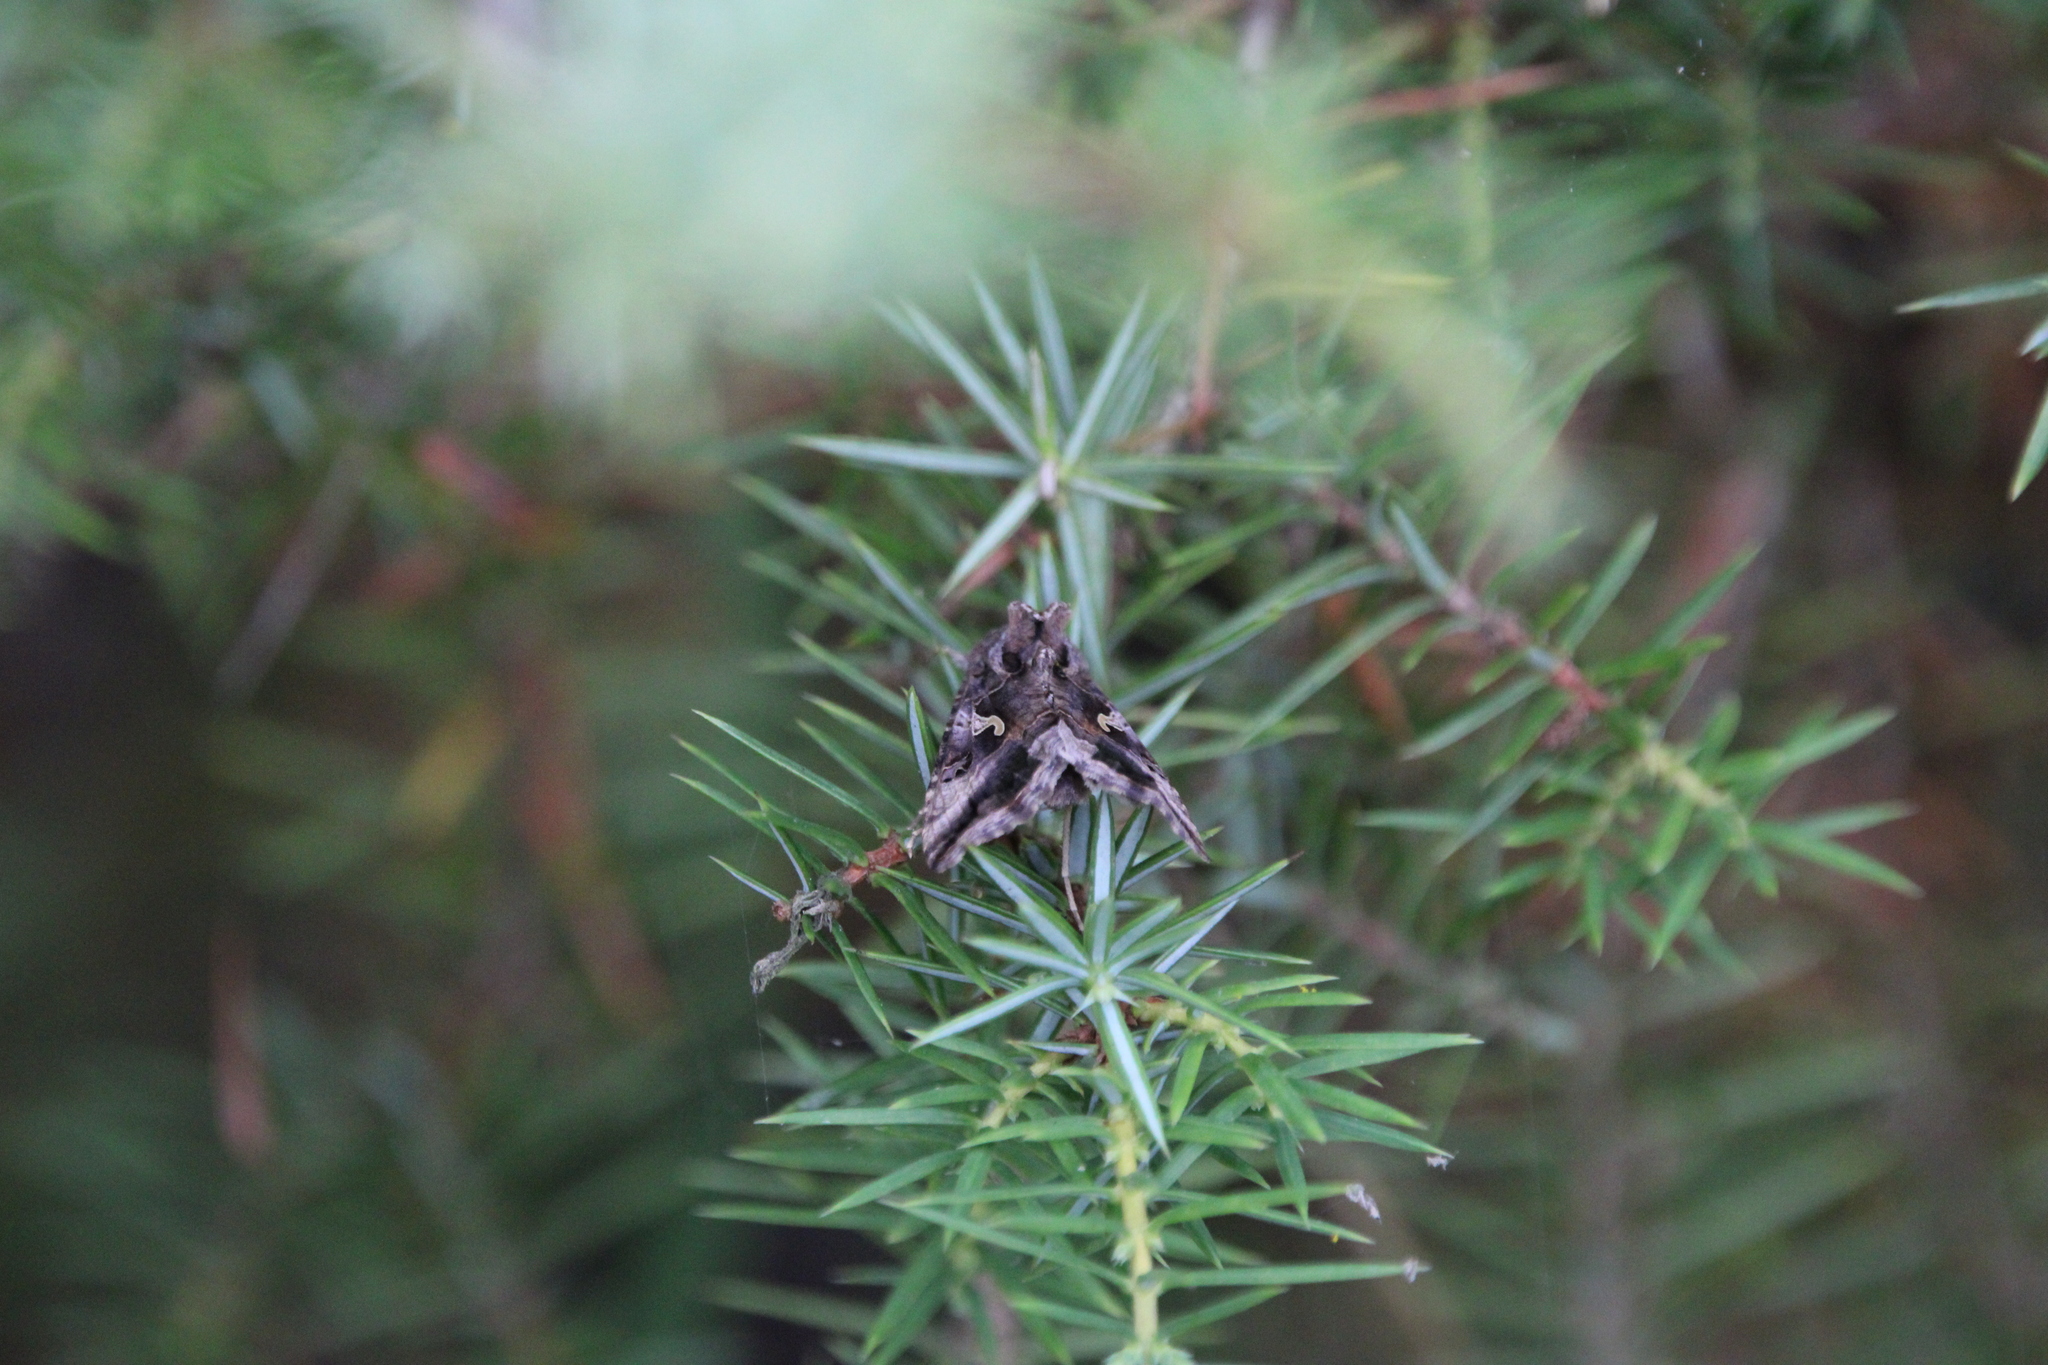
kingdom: Animalia
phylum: Arthropoda
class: Insecta
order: Lepidoptera
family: Noctuidae
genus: Autographa
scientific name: Autographa gamma
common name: Silver y
